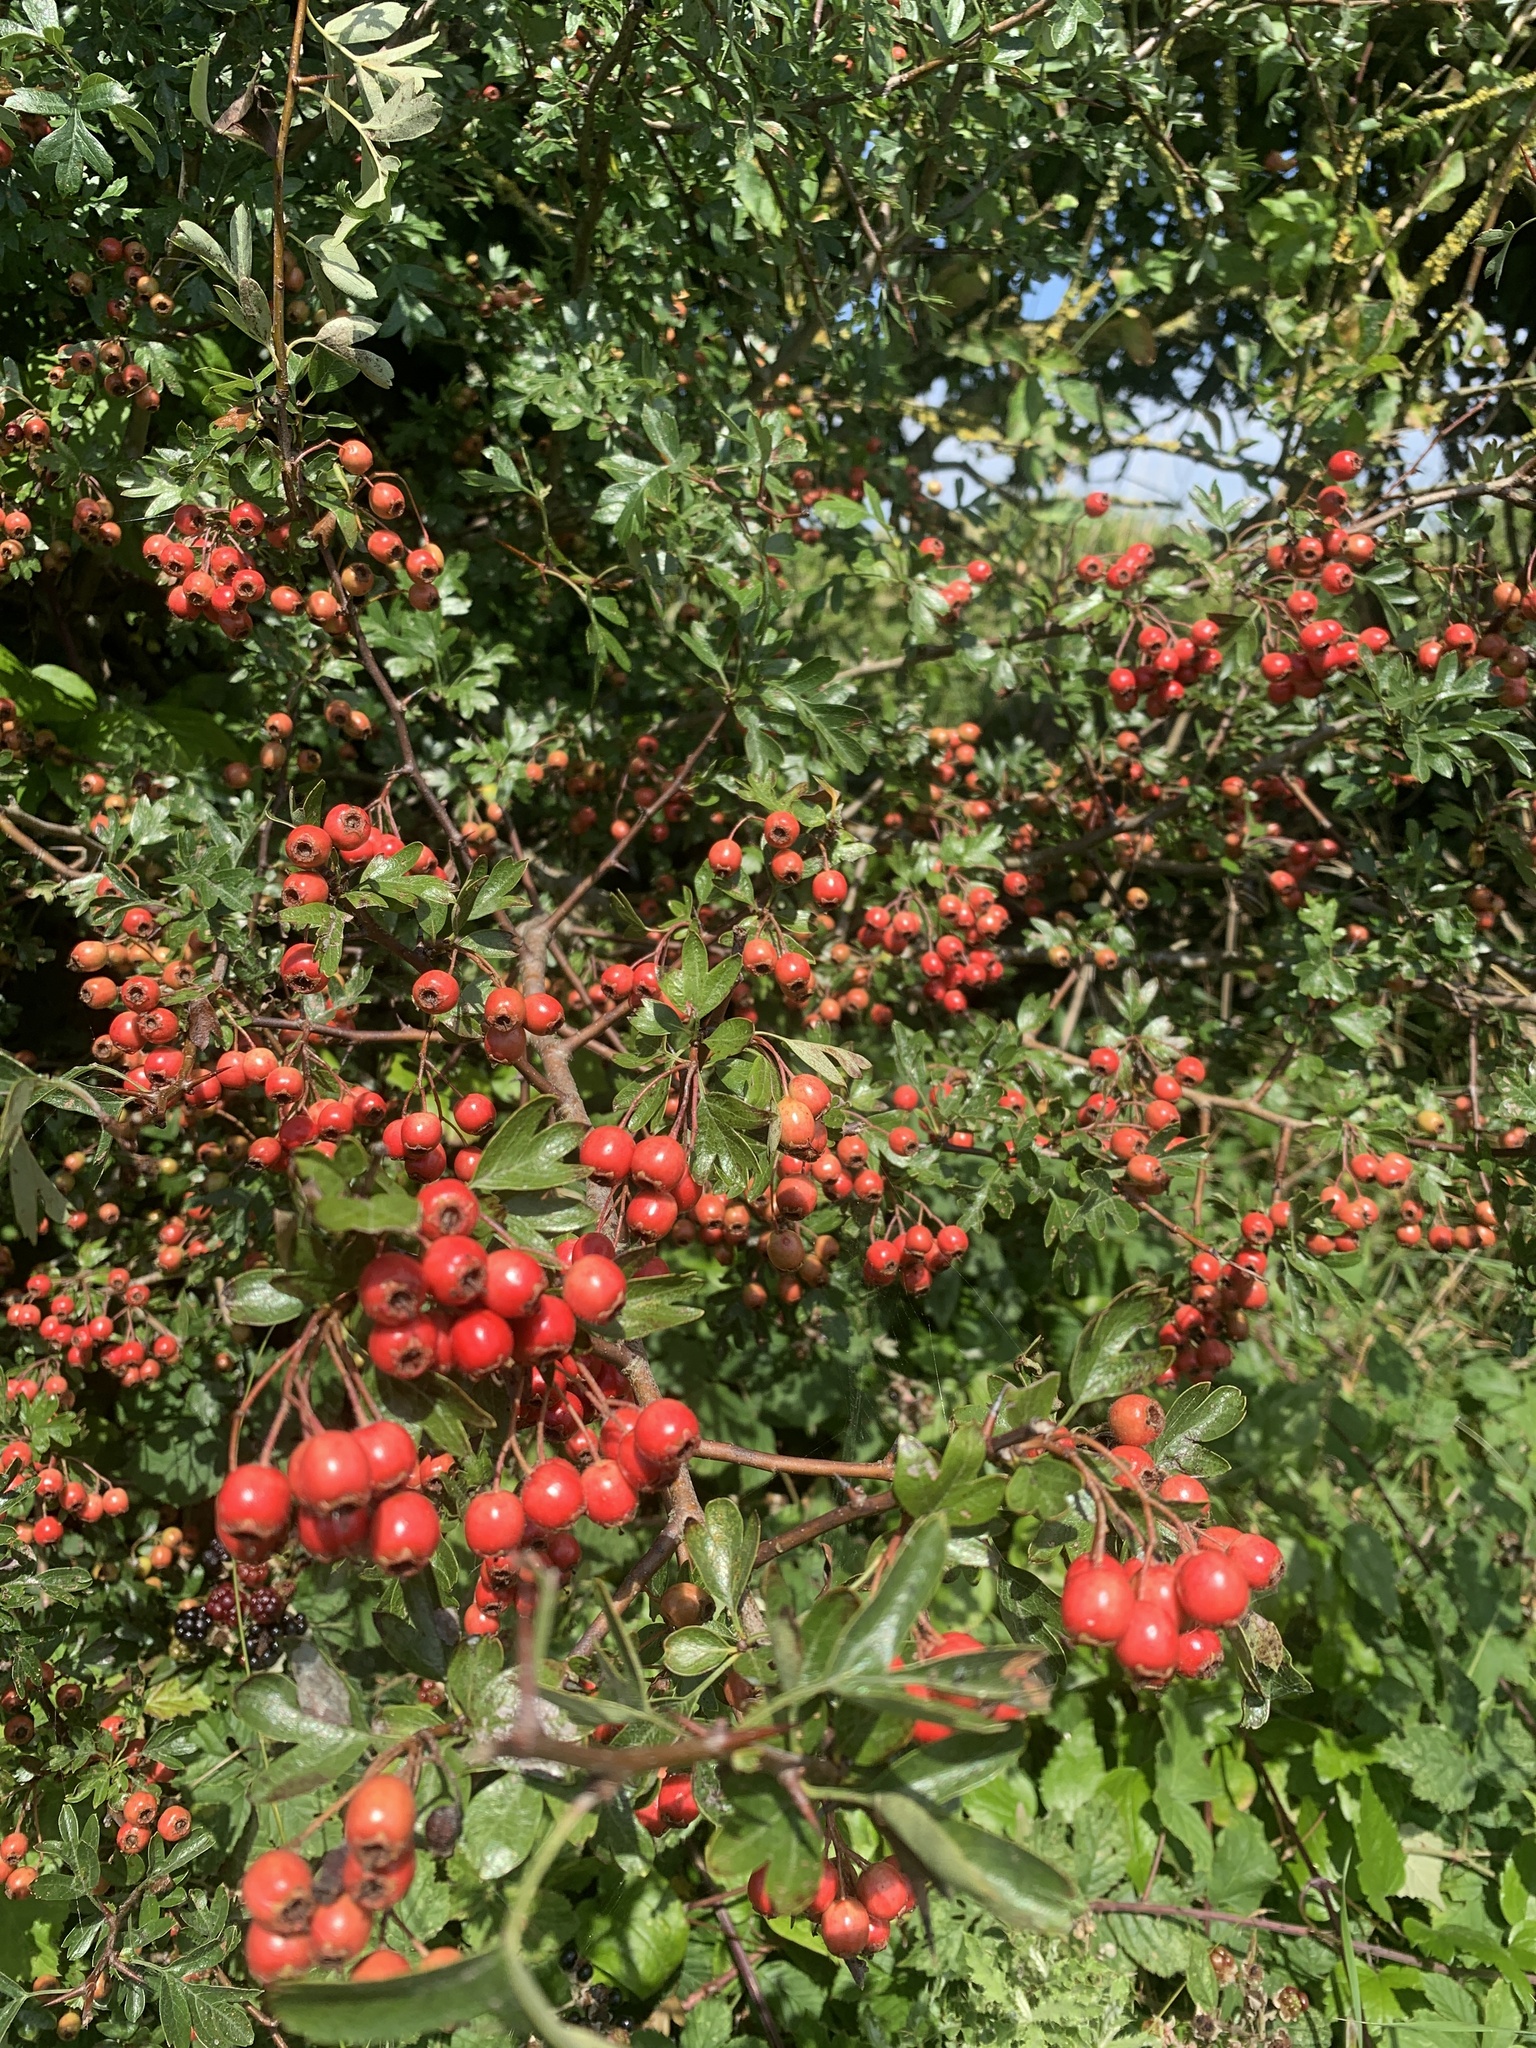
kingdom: Plantae
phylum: Tracheophyta
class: Magnoliopsida
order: Rosales
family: Rosaceae
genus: Crataegus
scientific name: Crataegus monogyna
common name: Hawthorn
